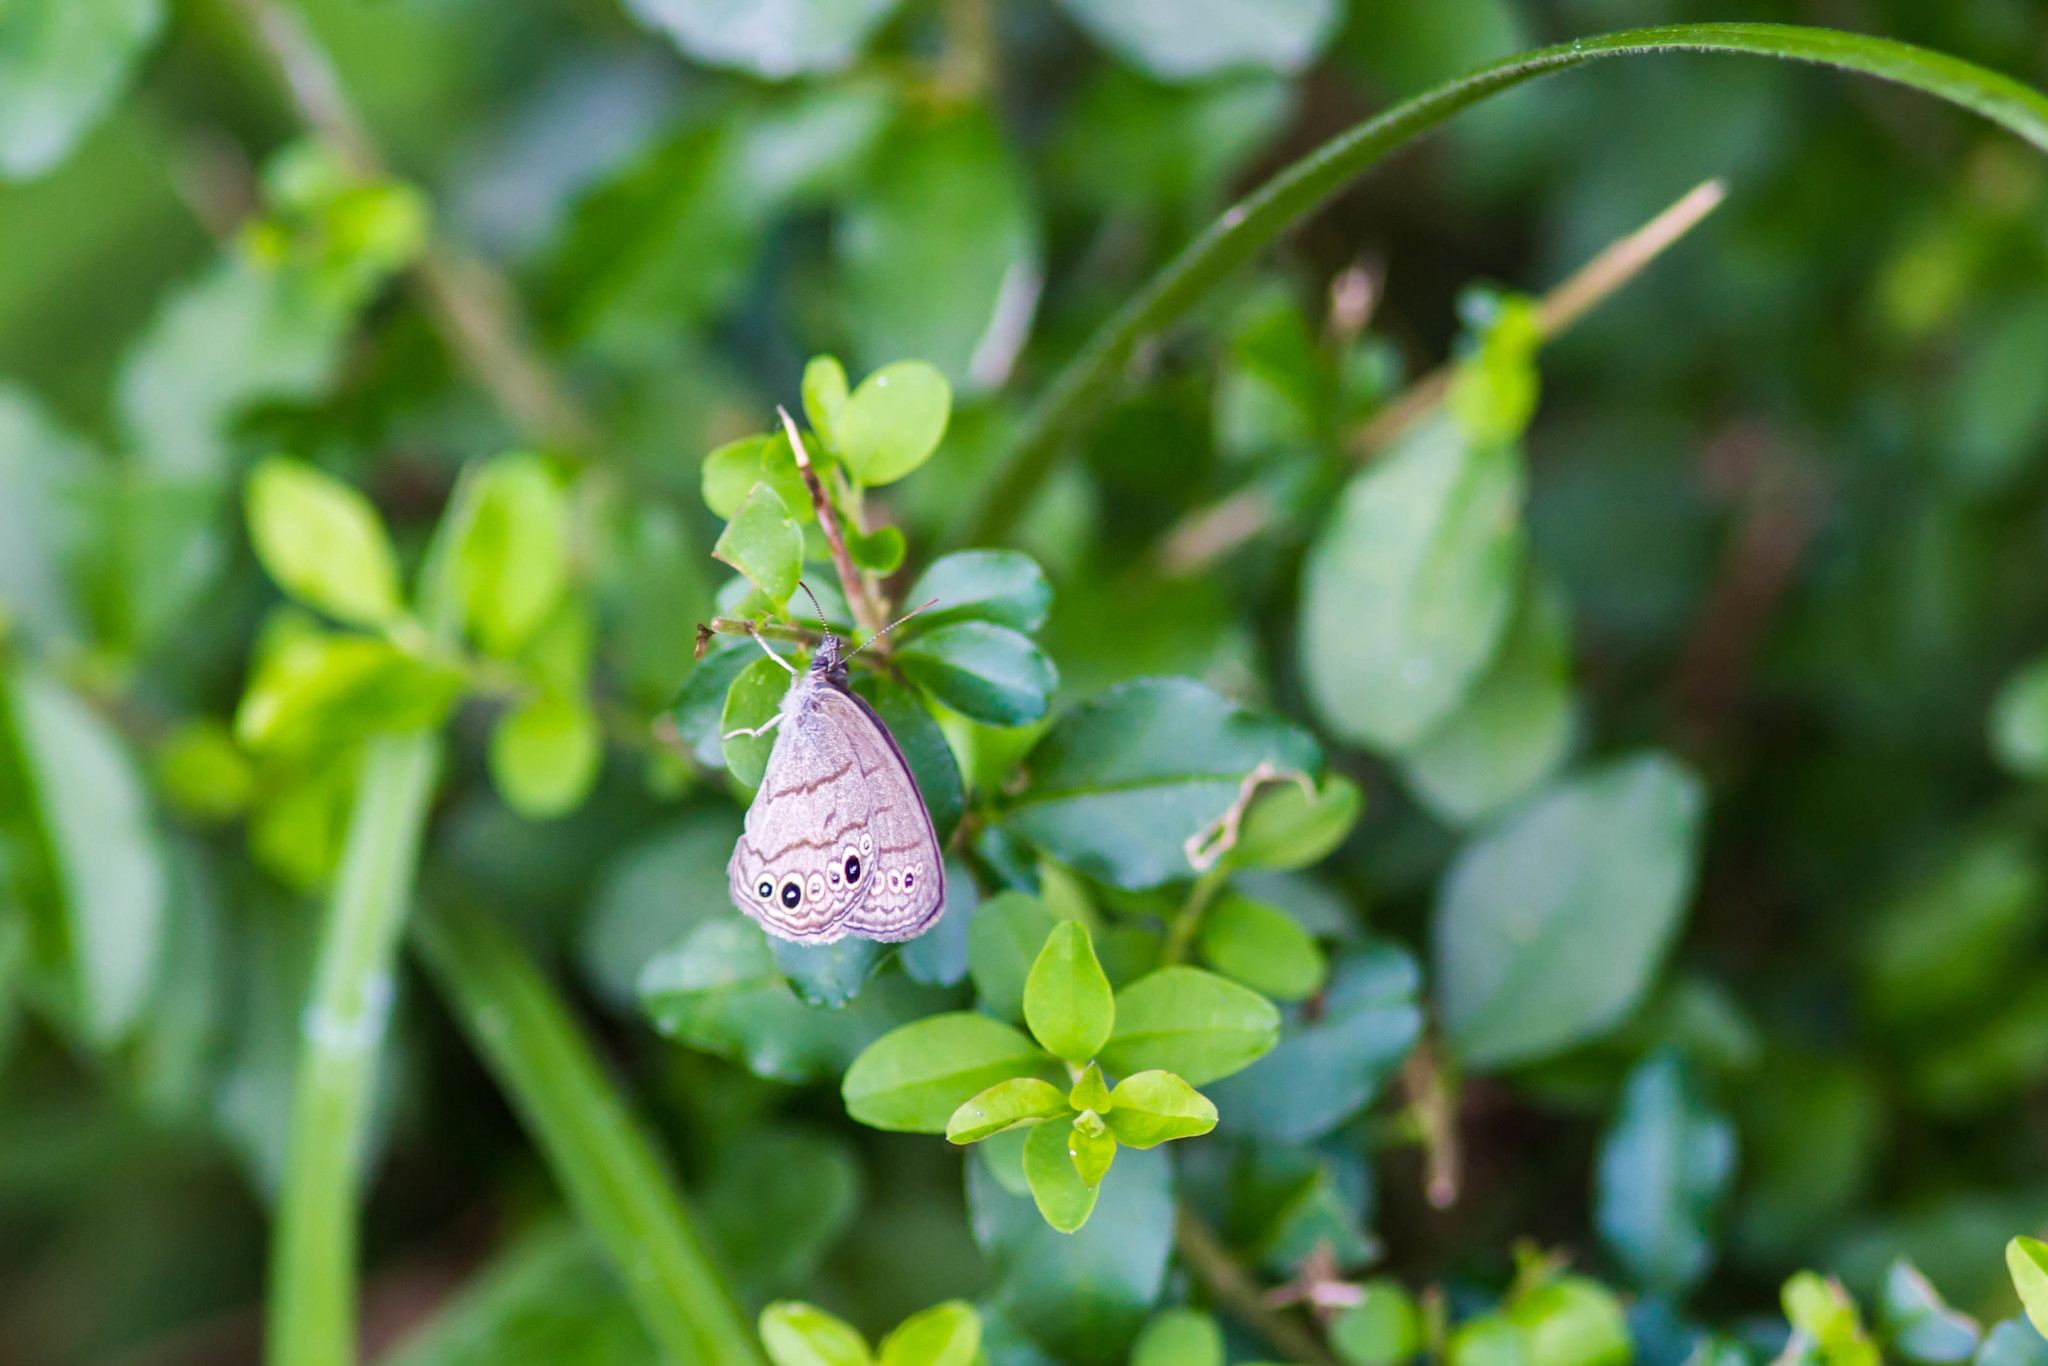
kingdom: Animalia
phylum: Arthropoda
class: Insecta
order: Lepidoptera
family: Nymphalidae
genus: Hermeuptychia
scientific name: Hermeuptychia hermes
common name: Hermes satyr
